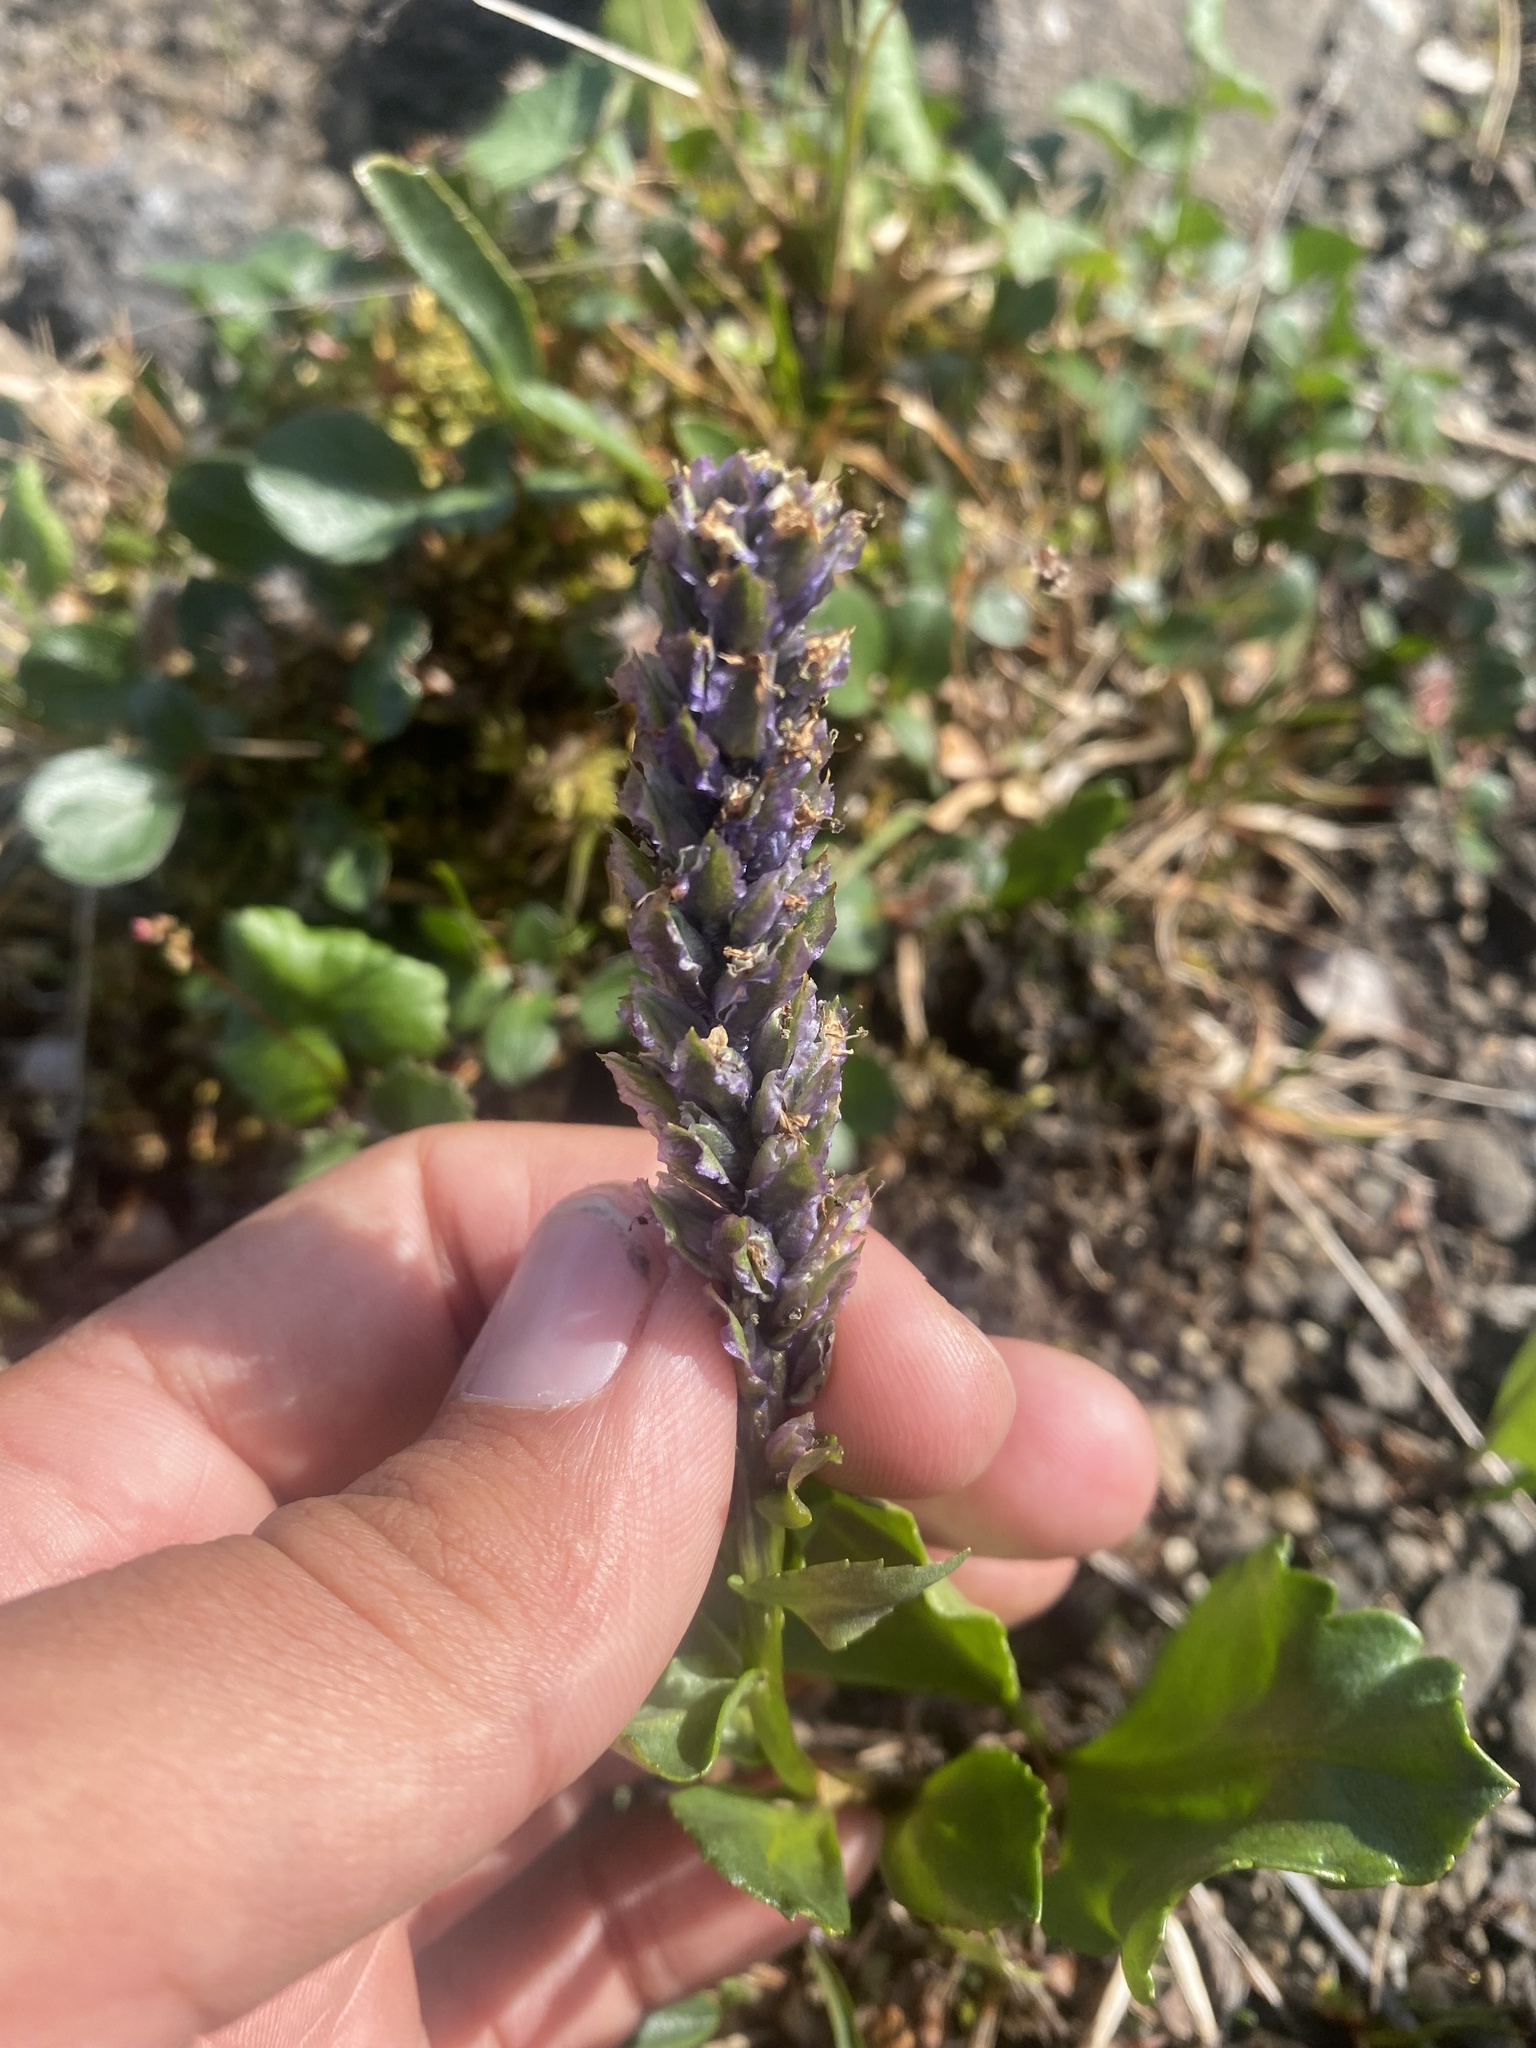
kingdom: Plantae
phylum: Tracheophyta
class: Magnoliopsida
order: Lamiales
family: Plantaginaceae
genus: Lagotis
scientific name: Lagotis glauca
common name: Glaucous weaselsnout
